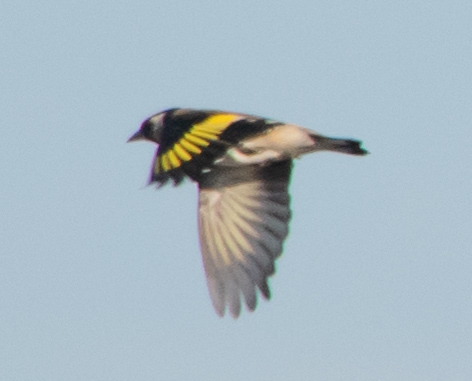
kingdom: Animalia
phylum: Chordata
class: Aves
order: Passeriformes
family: Fringillidae
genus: Carduelis
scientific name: Carduelis carduelis
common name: European goldfinch
